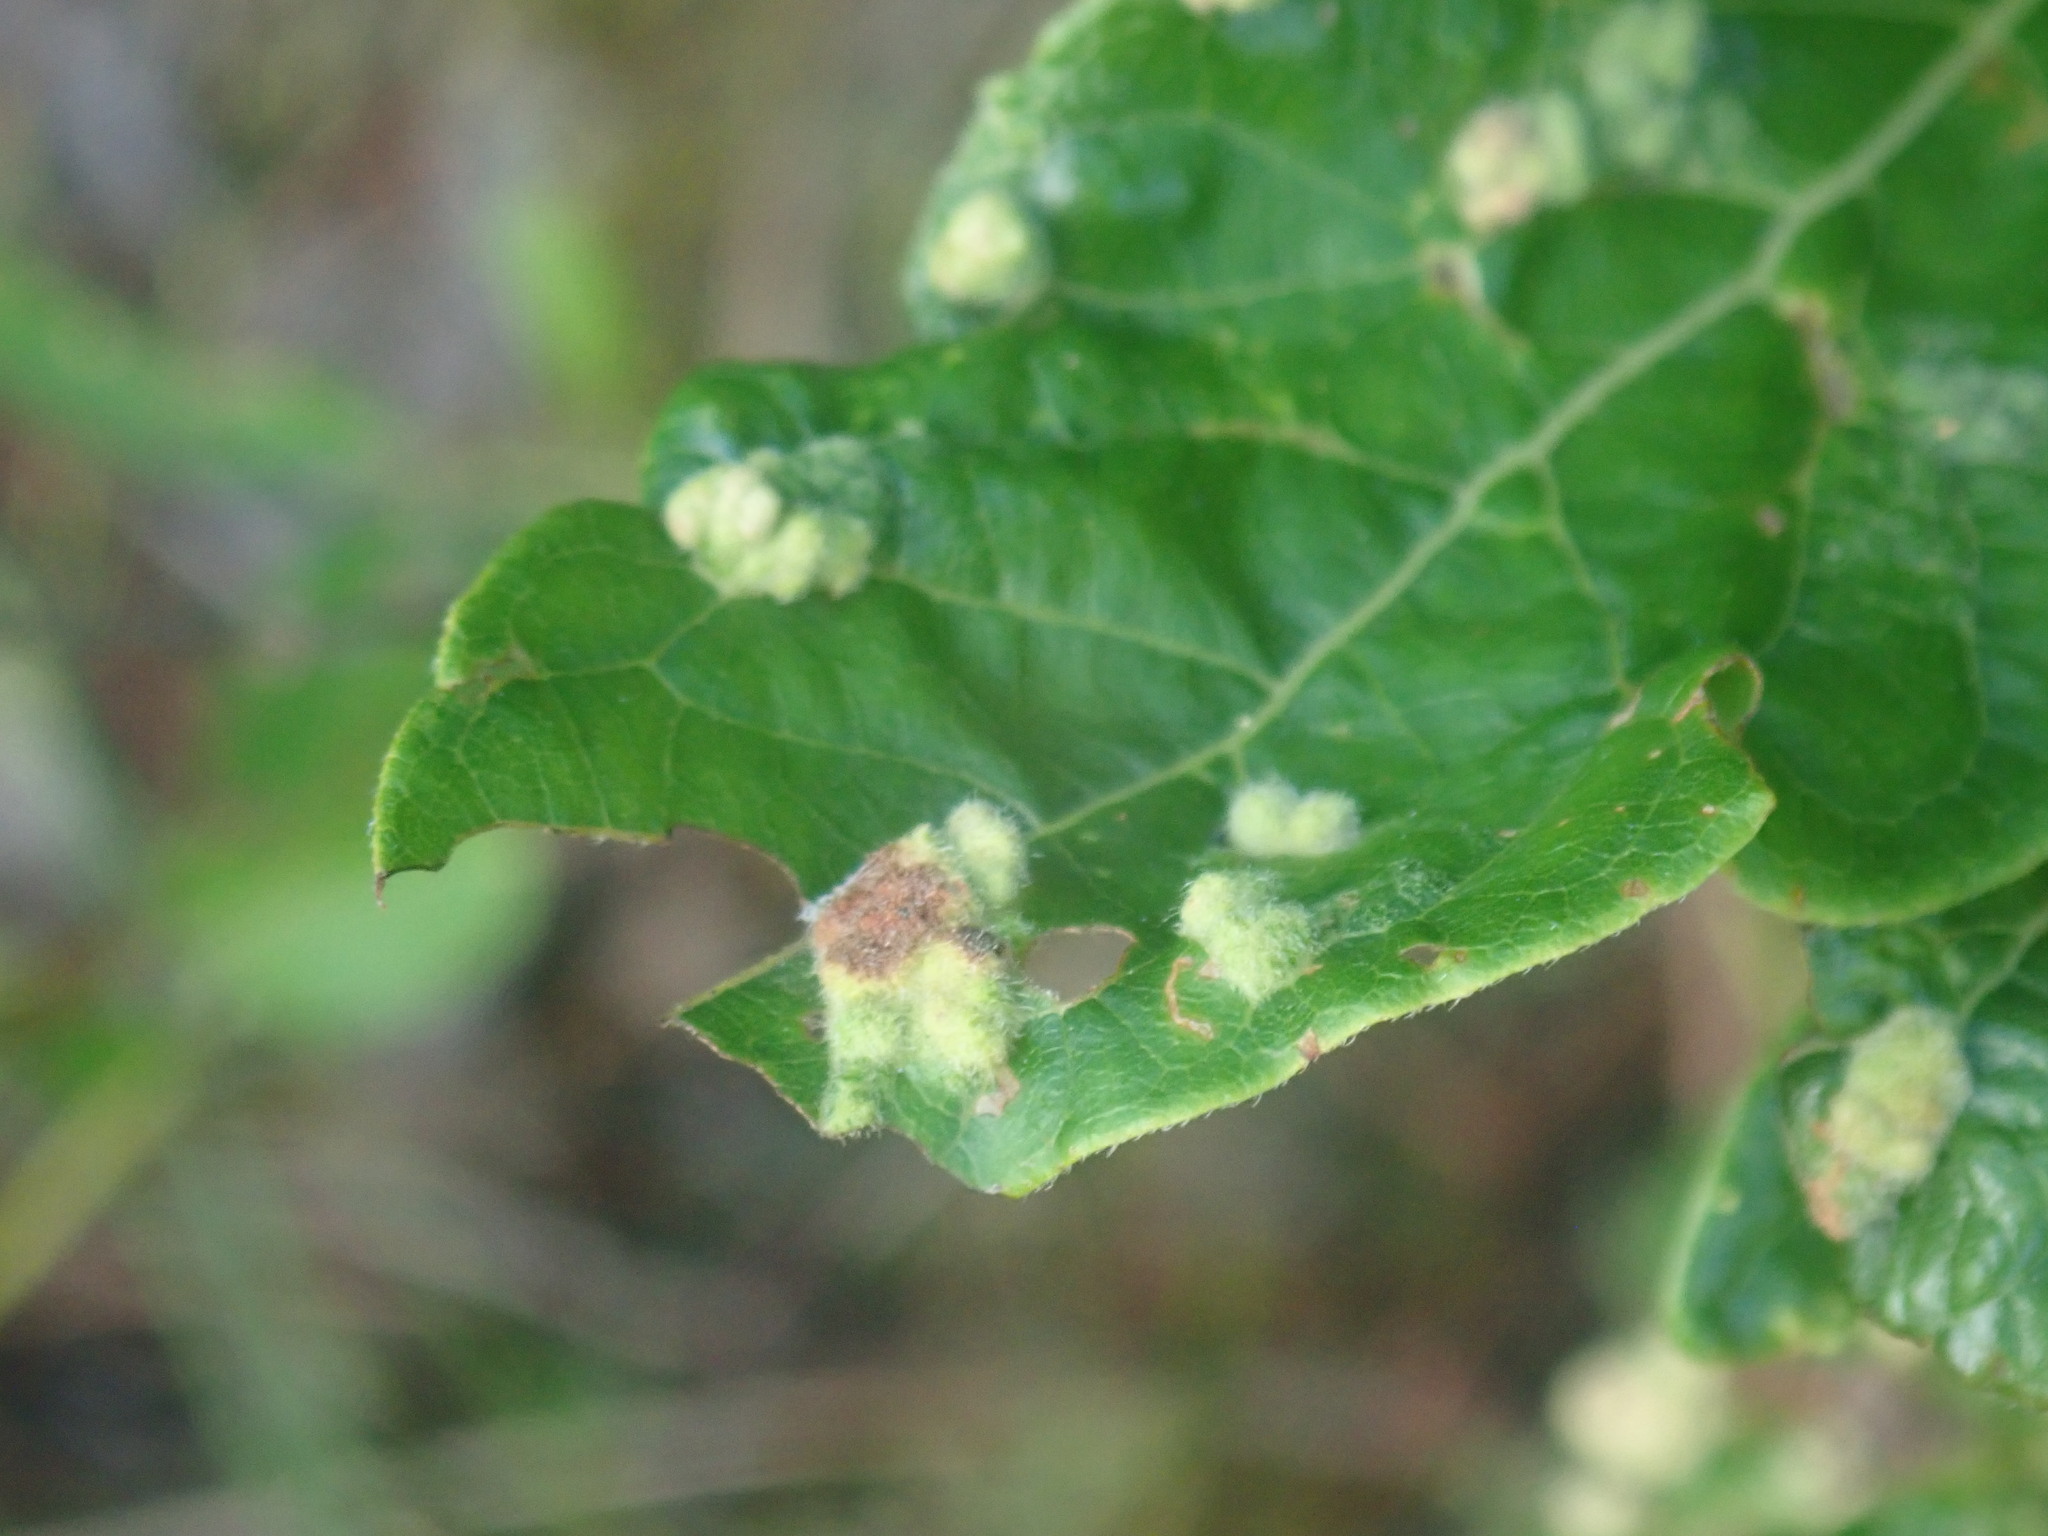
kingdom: Animalia
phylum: Arthropoda
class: Arachnida
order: Trombidiformes
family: Eriophyidae
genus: Aceria
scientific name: Aceria
